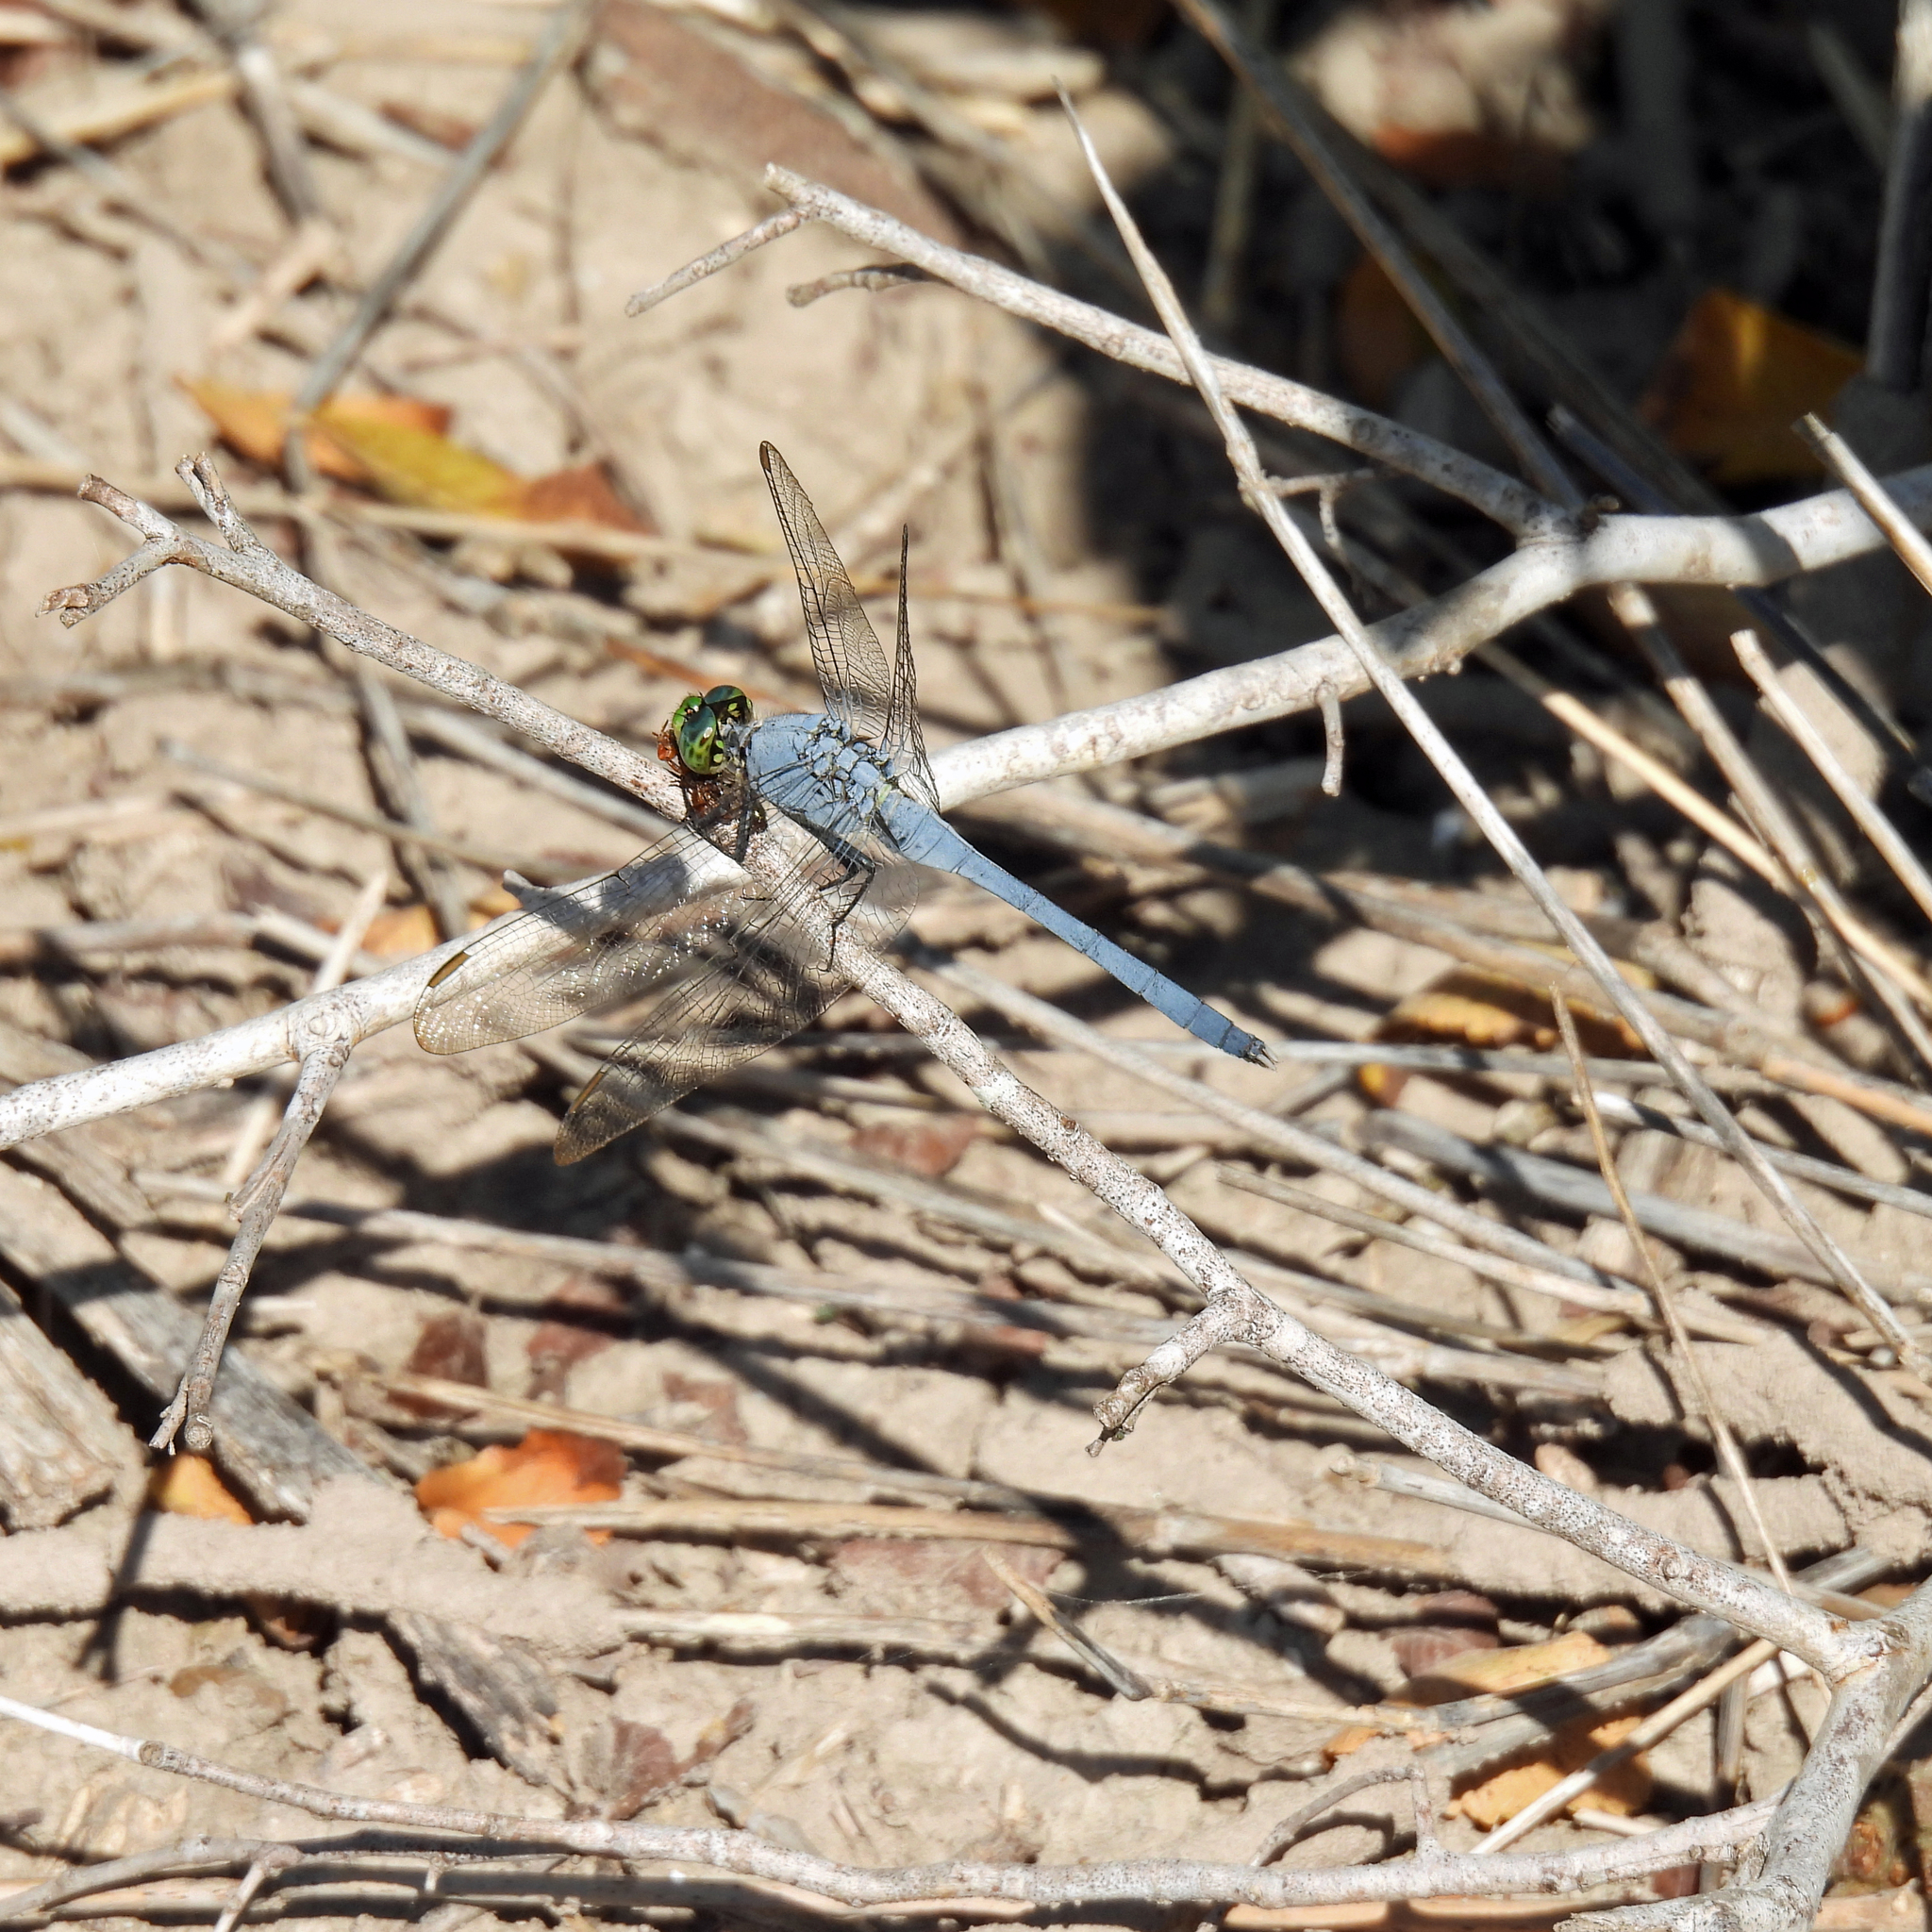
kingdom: Animalia
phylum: Arthropoda
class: Insecta
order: Odonata
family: Libellulidae
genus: Erythemis
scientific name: Erythemis simplicicollis
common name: Eastern pondhawk
